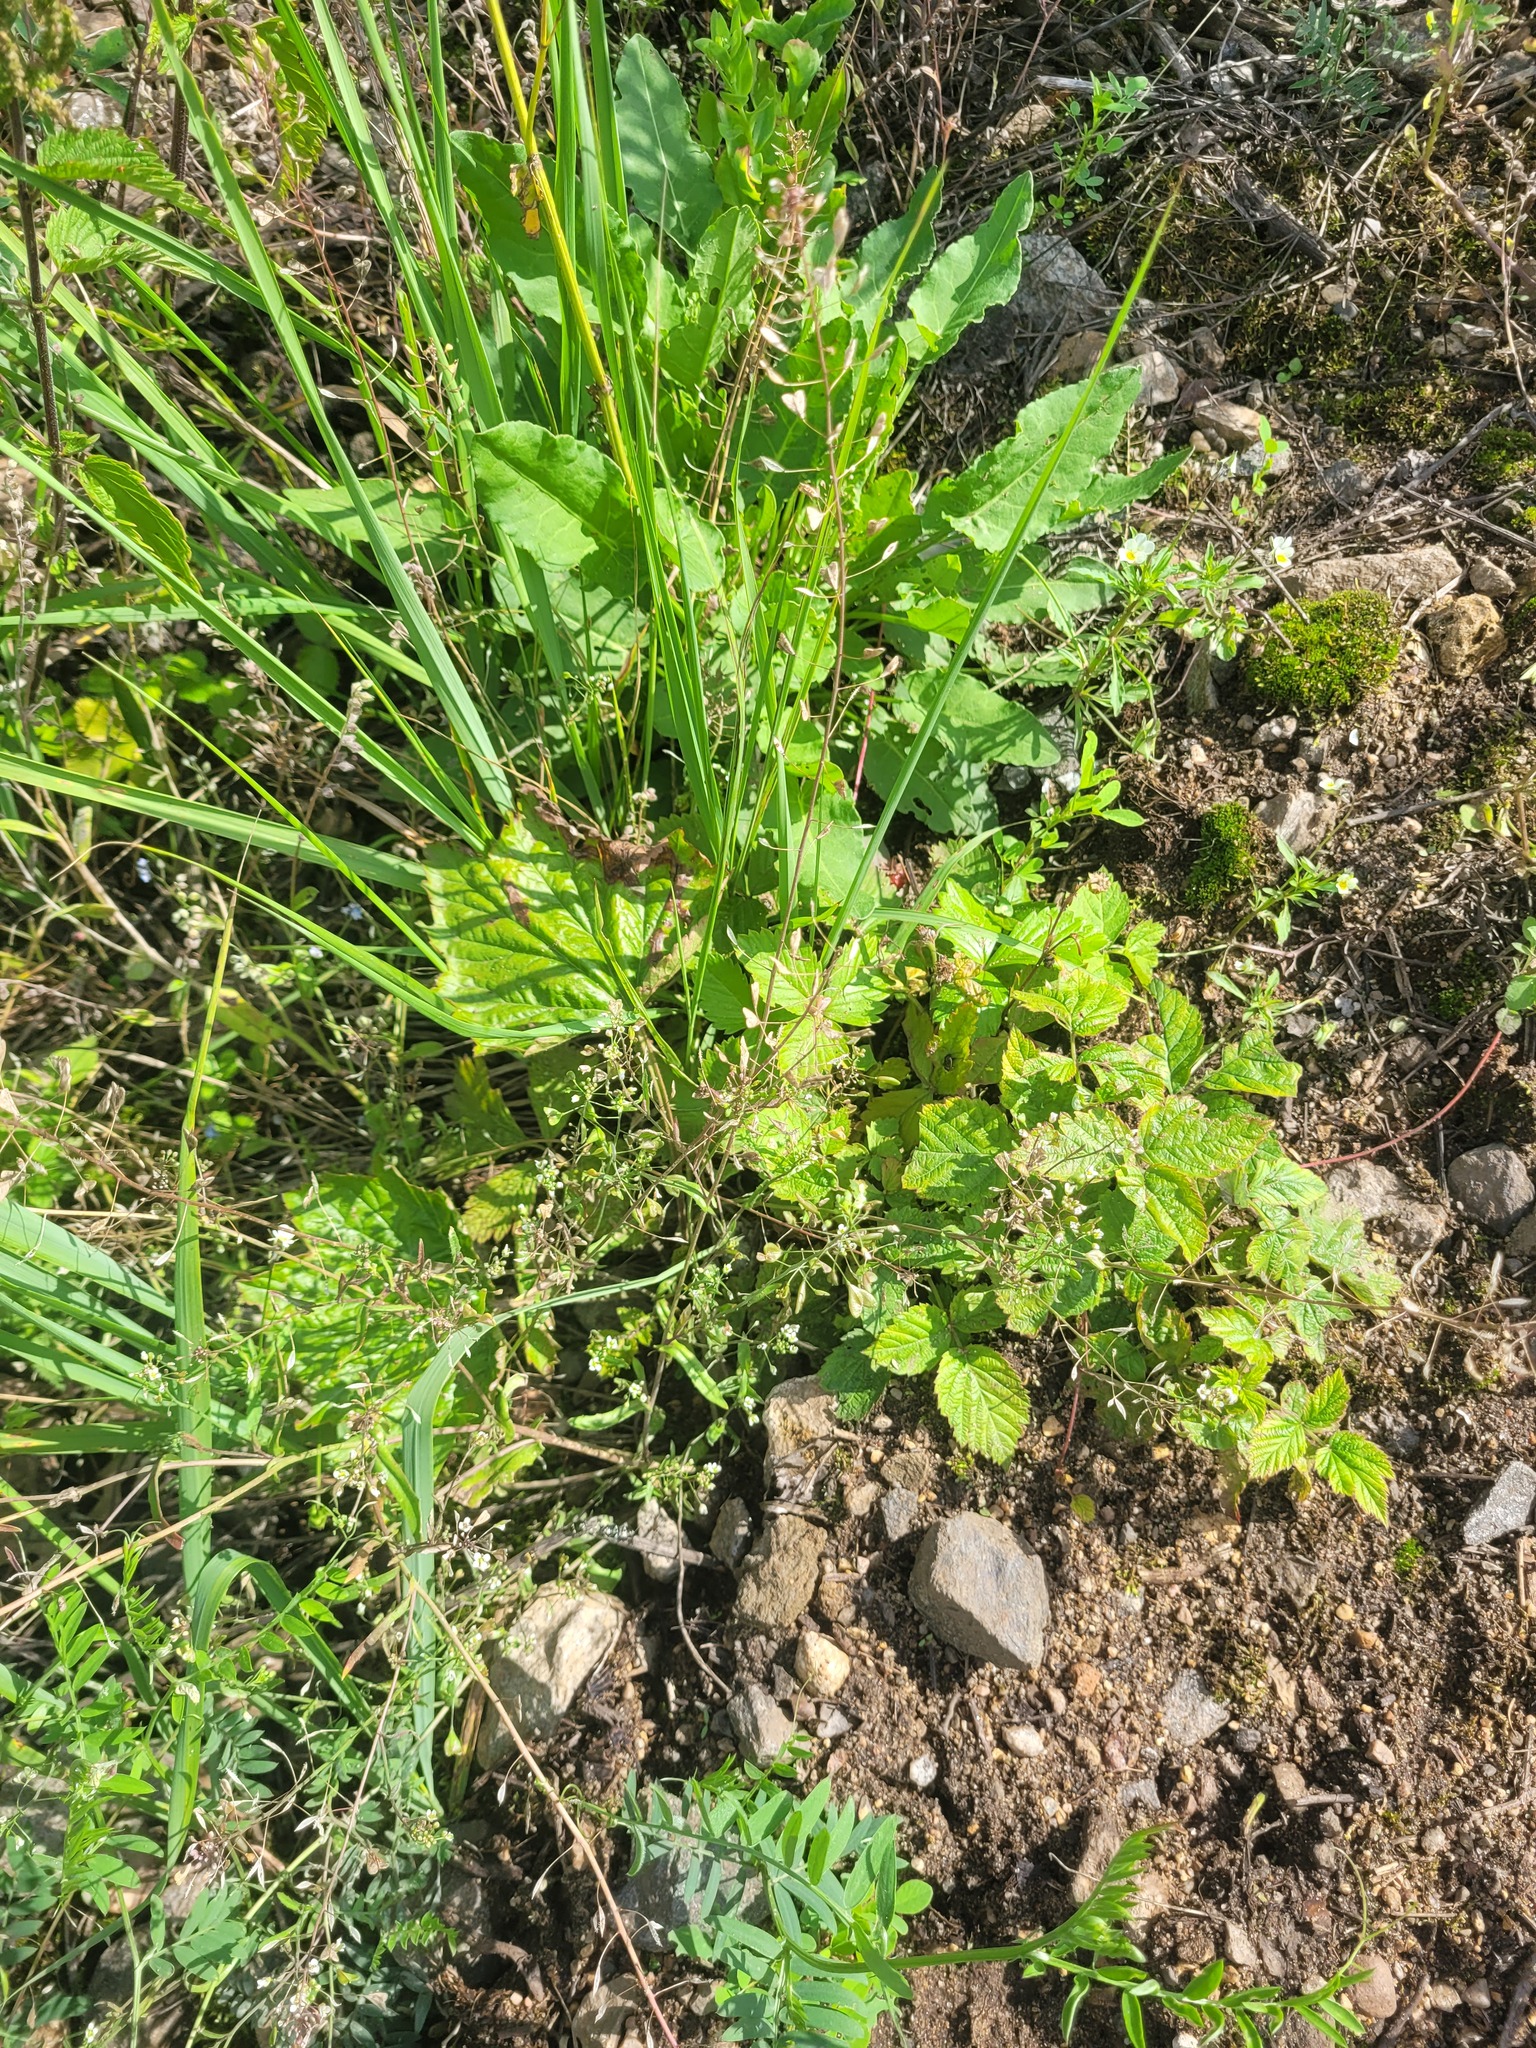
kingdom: Plantae
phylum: Tracheophyta
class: Magnoliopsida
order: Brassicales
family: Brassicaceae
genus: Capsella
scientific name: Capsella bursa-pastoris
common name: Shepherd's purse
